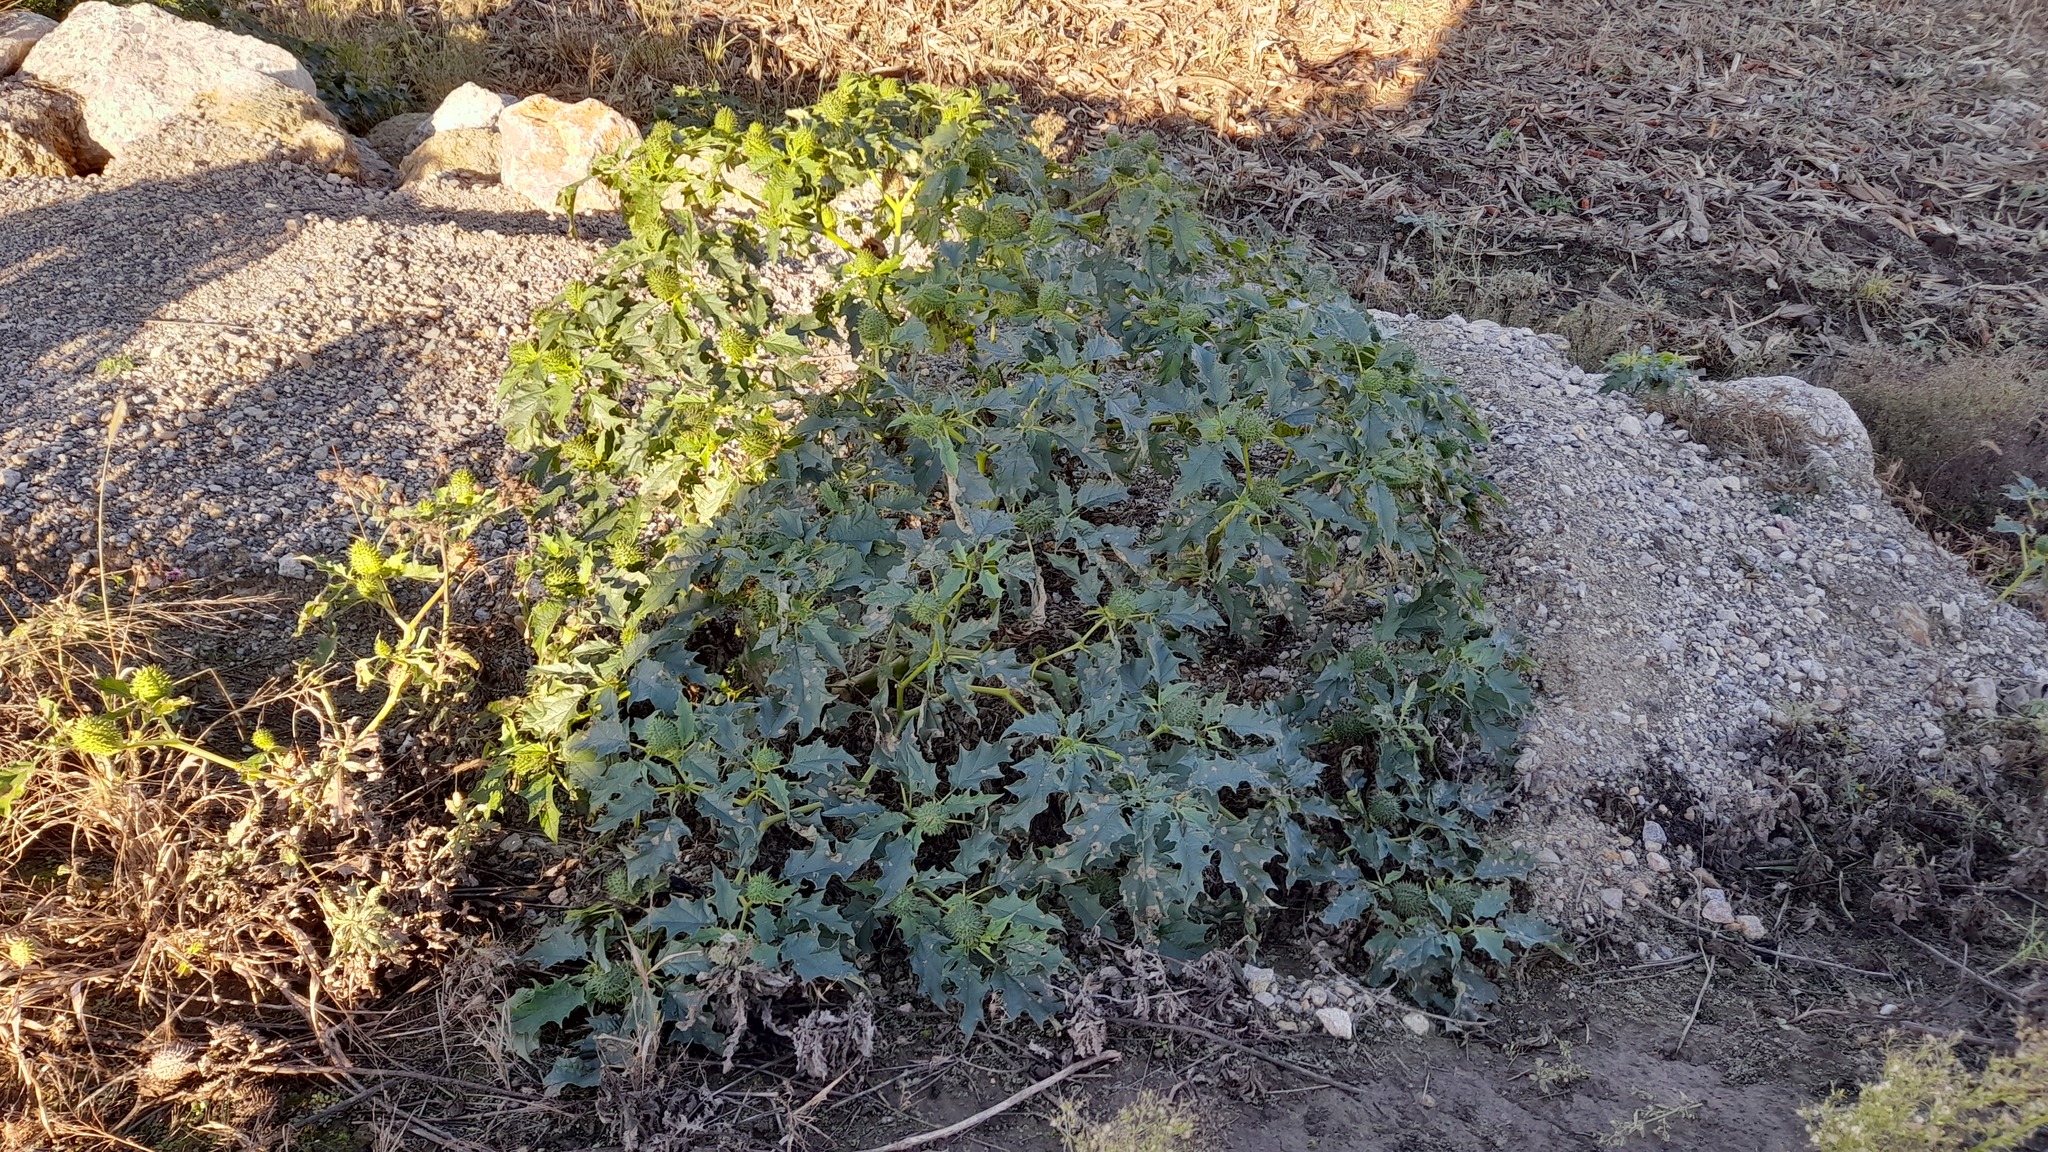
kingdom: Plantae
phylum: Tracheophyta
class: Magnoliopsida
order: Solanales
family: Solanaceae
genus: Datura
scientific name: Datura stramonium
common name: Thorn-apple
